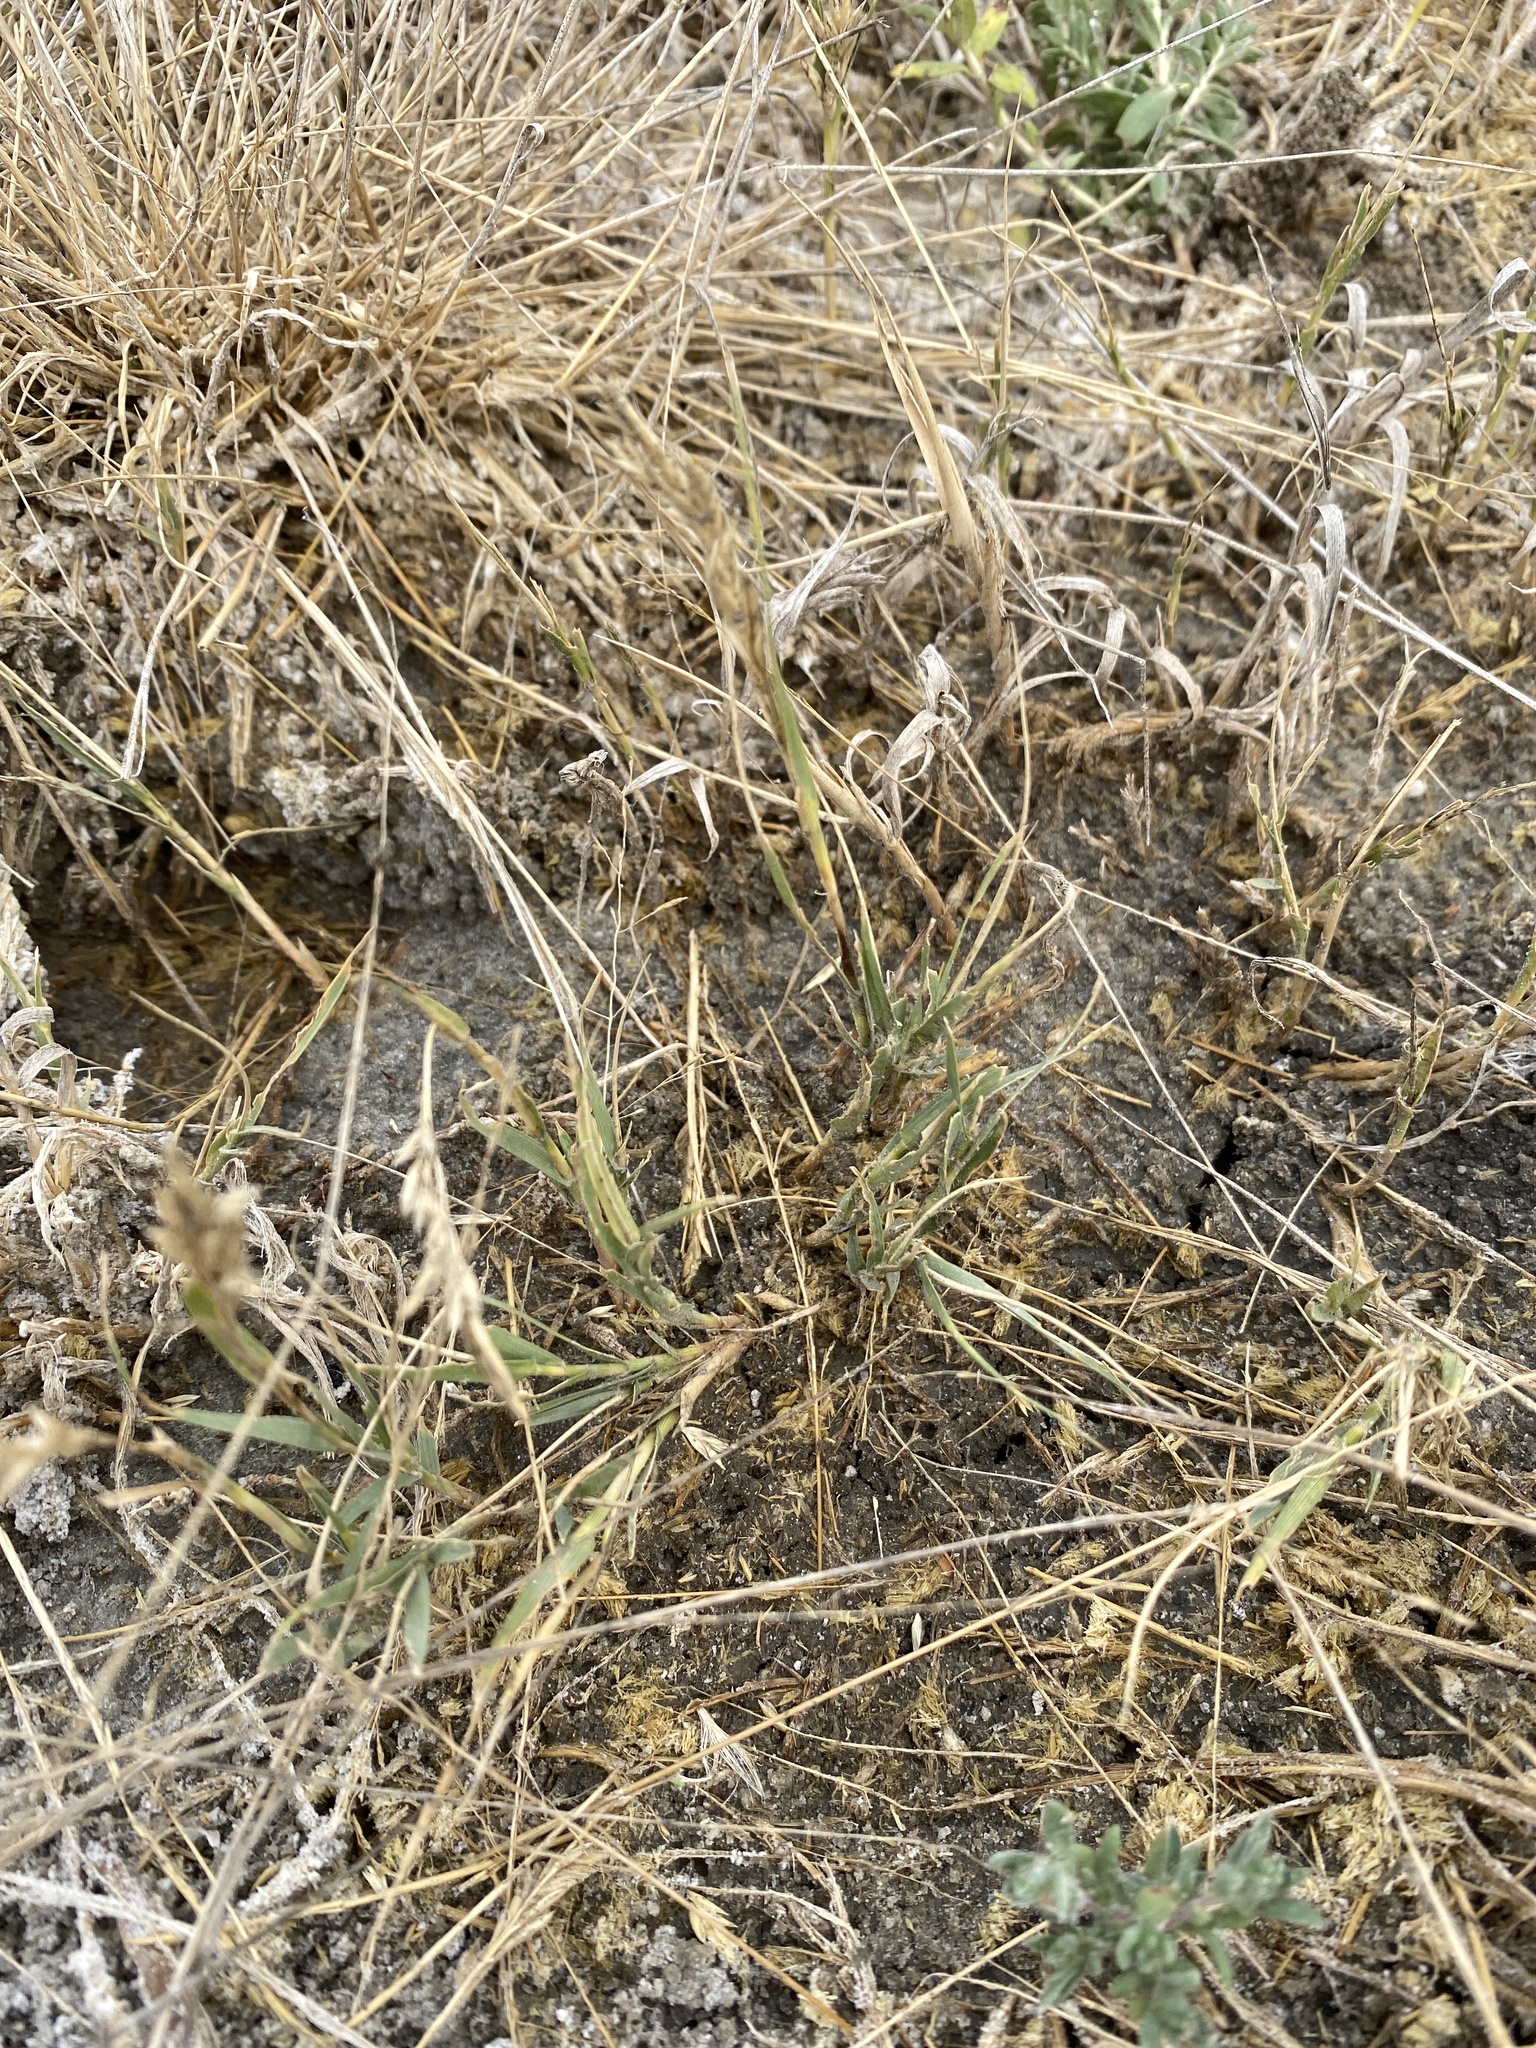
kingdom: Plantae
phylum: Tracheophyta
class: Liliopsida
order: Poales
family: Poaceae
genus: Distichlis
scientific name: Distichlis spicata
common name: Saltgrass
